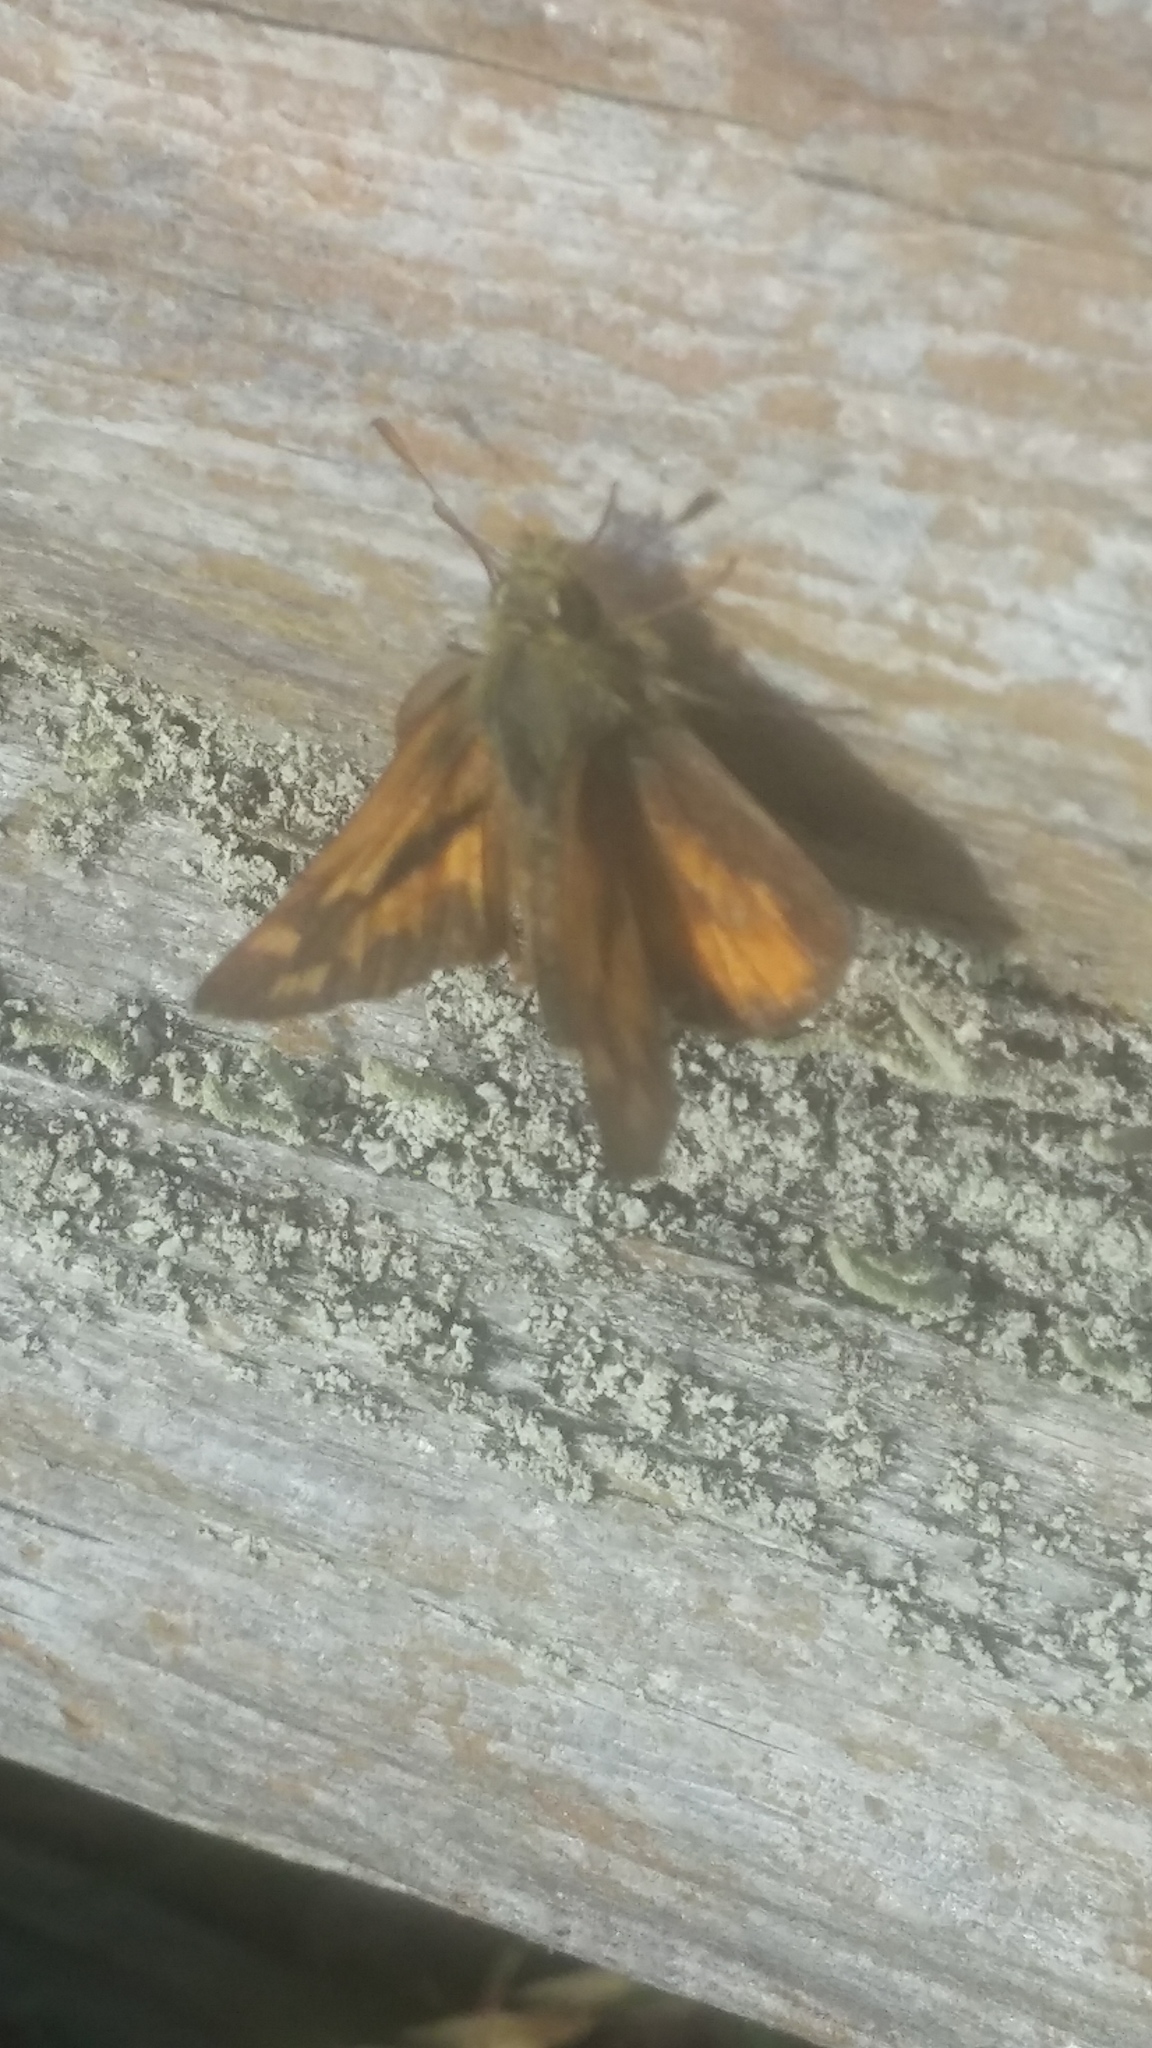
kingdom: Animalia
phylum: Arthropoda
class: Insecta
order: Lepidoptera
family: Hesperiidae
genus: Ochlodes
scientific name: Ochlodes sylvanoides
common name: Woodland skipper
